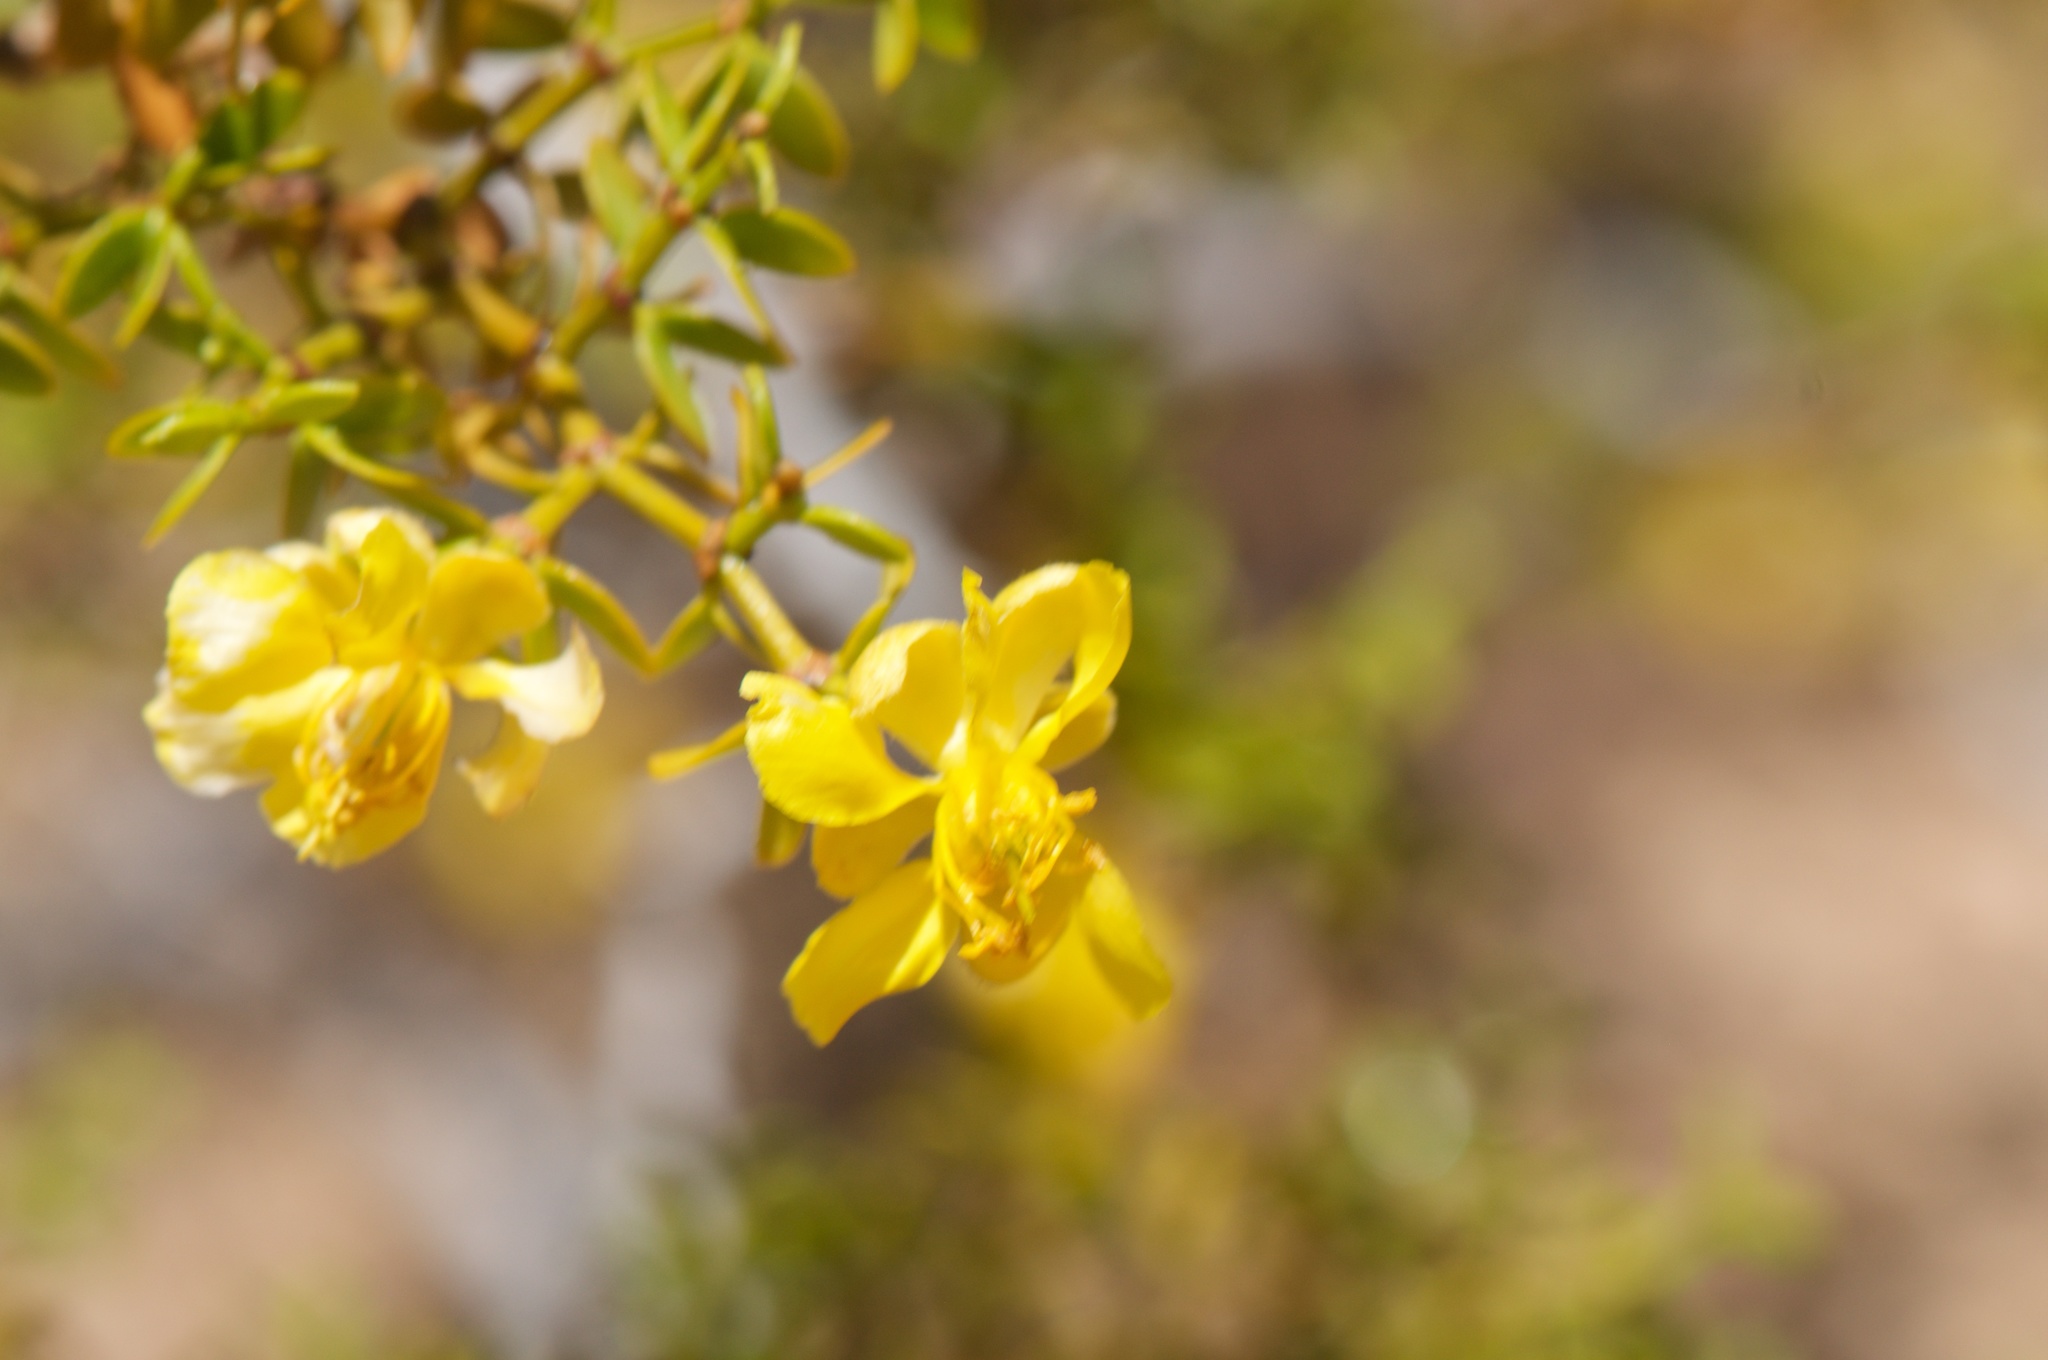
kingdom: Plantae
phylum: Tracheophyta
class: Magnoliopsida
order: Zygophyllales
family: Zygophyllaceae
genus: Larrea
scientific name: Larrea divaricata
